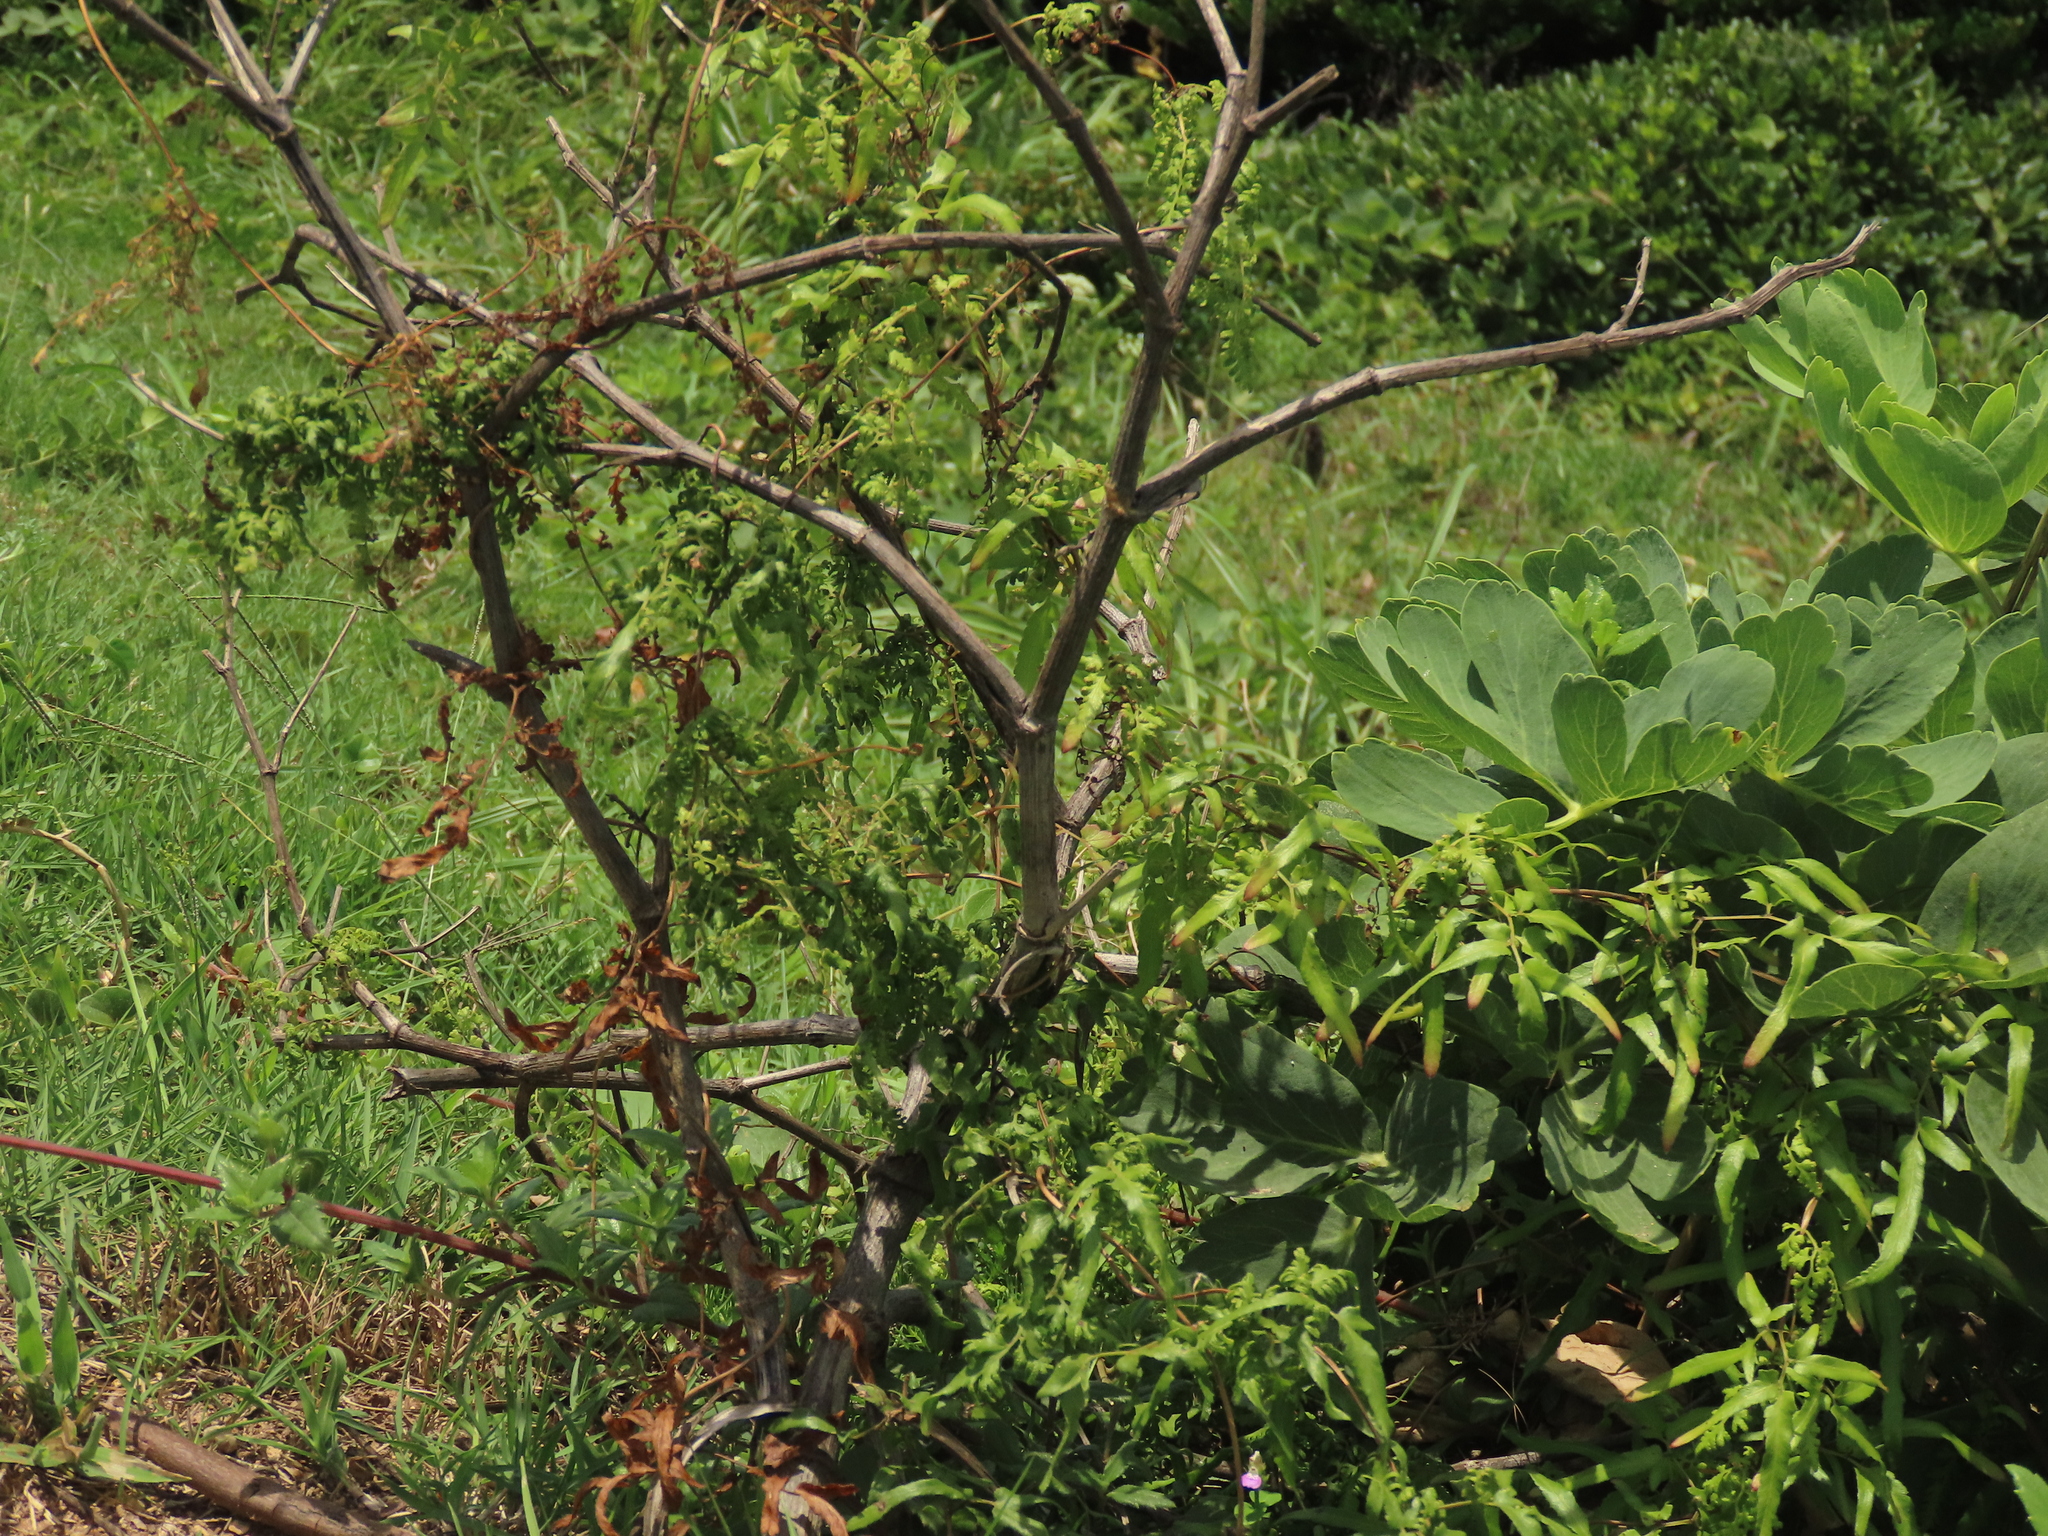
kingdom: Plantae
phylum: Tracheophyta
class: Polypodiopsida
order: Schizaeales
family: Lygodiaceae
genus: Lygodium
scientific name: Lygodium japonicum
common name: Japanese climbing fern
